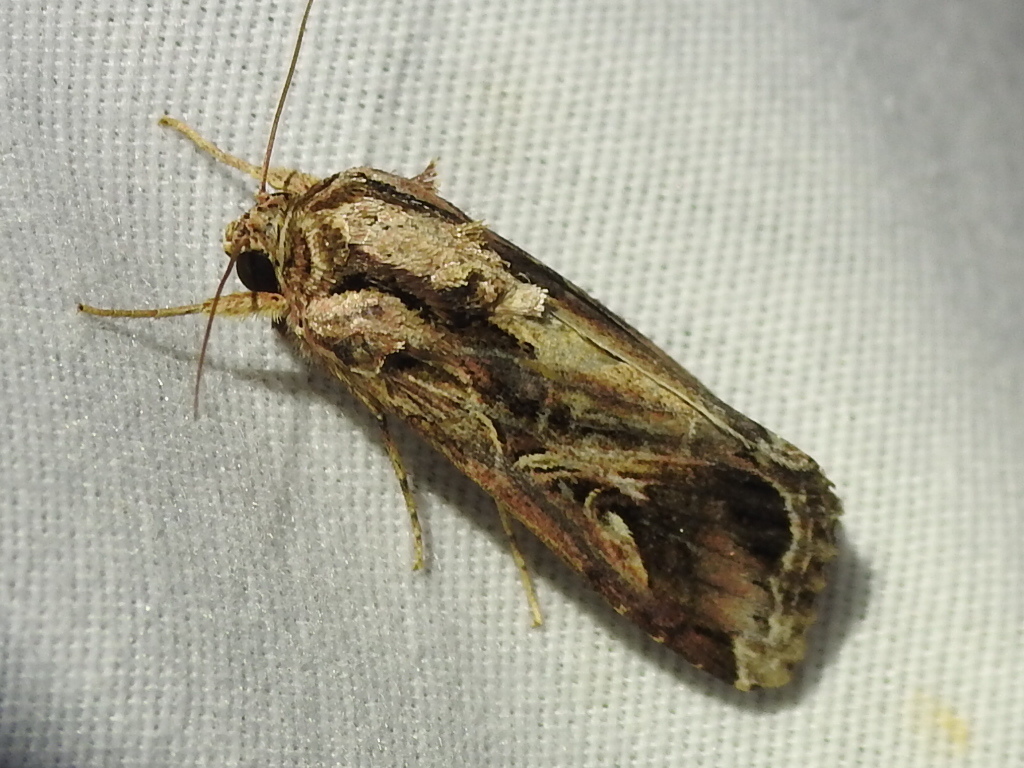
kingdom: Animalia
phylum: Arthropoda
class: Insecta
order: Lepidoptera
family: Noctuidae
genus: Spodoptera
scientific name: Spodoptera dolichos
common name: Sweetpotato armyworm
